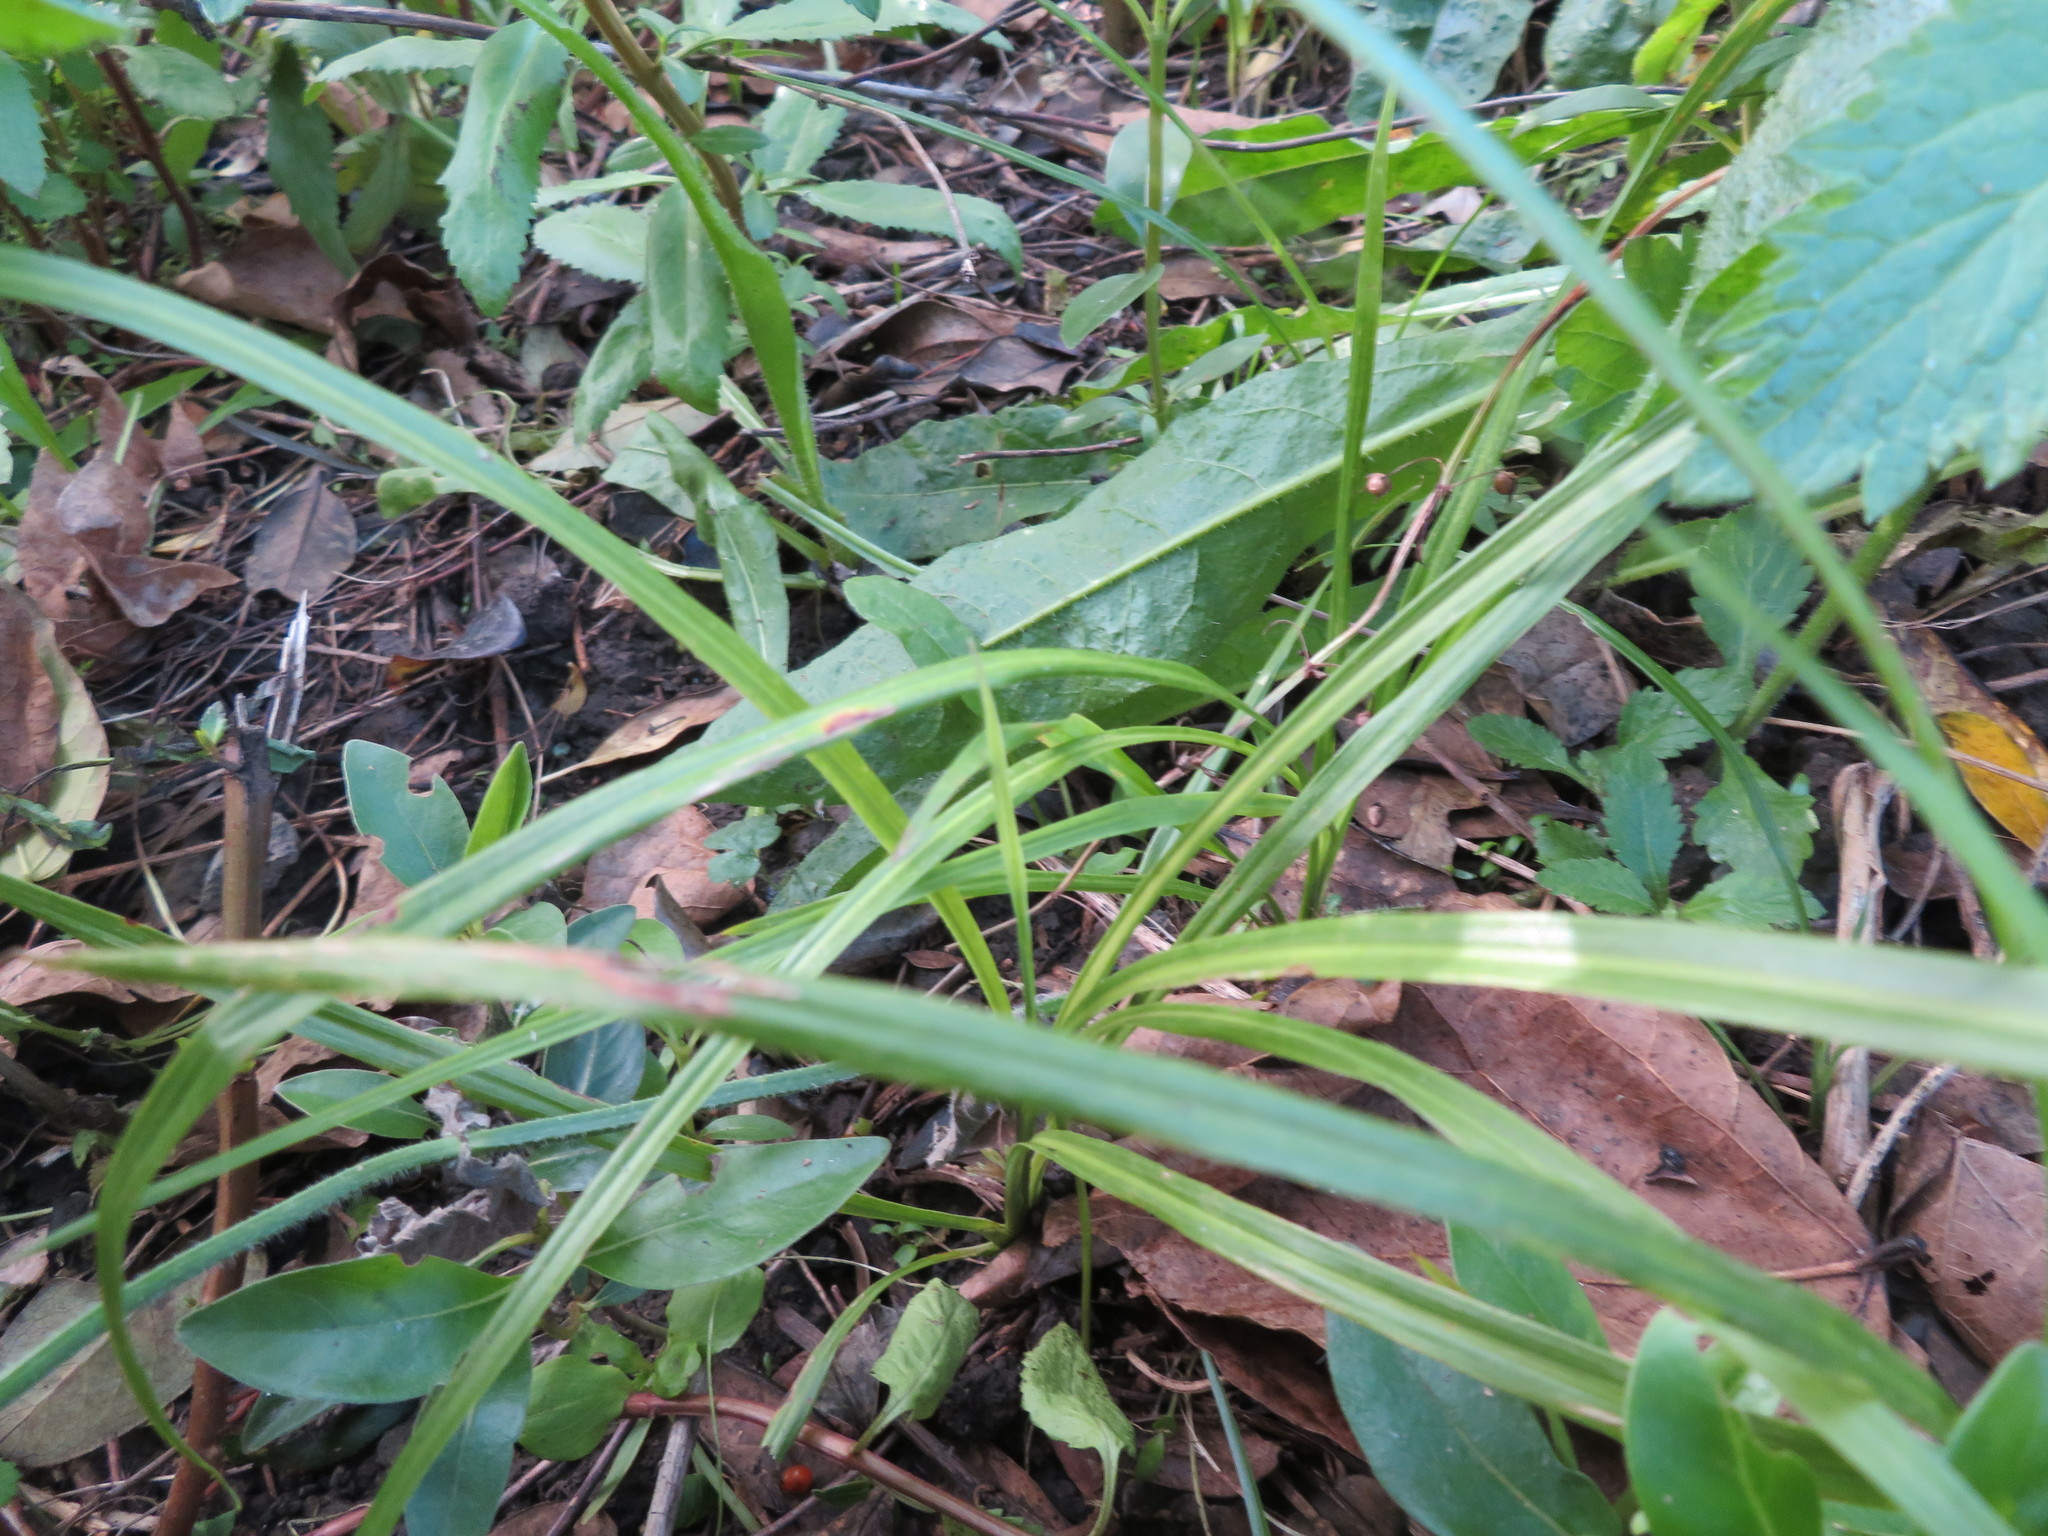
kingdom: Plantae
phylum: Tracheophyta
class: Liliopsida
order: Asparagales
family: Asparagaceae
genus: Cordyline
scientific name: Cordyline australis
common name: Cabbage-palm
